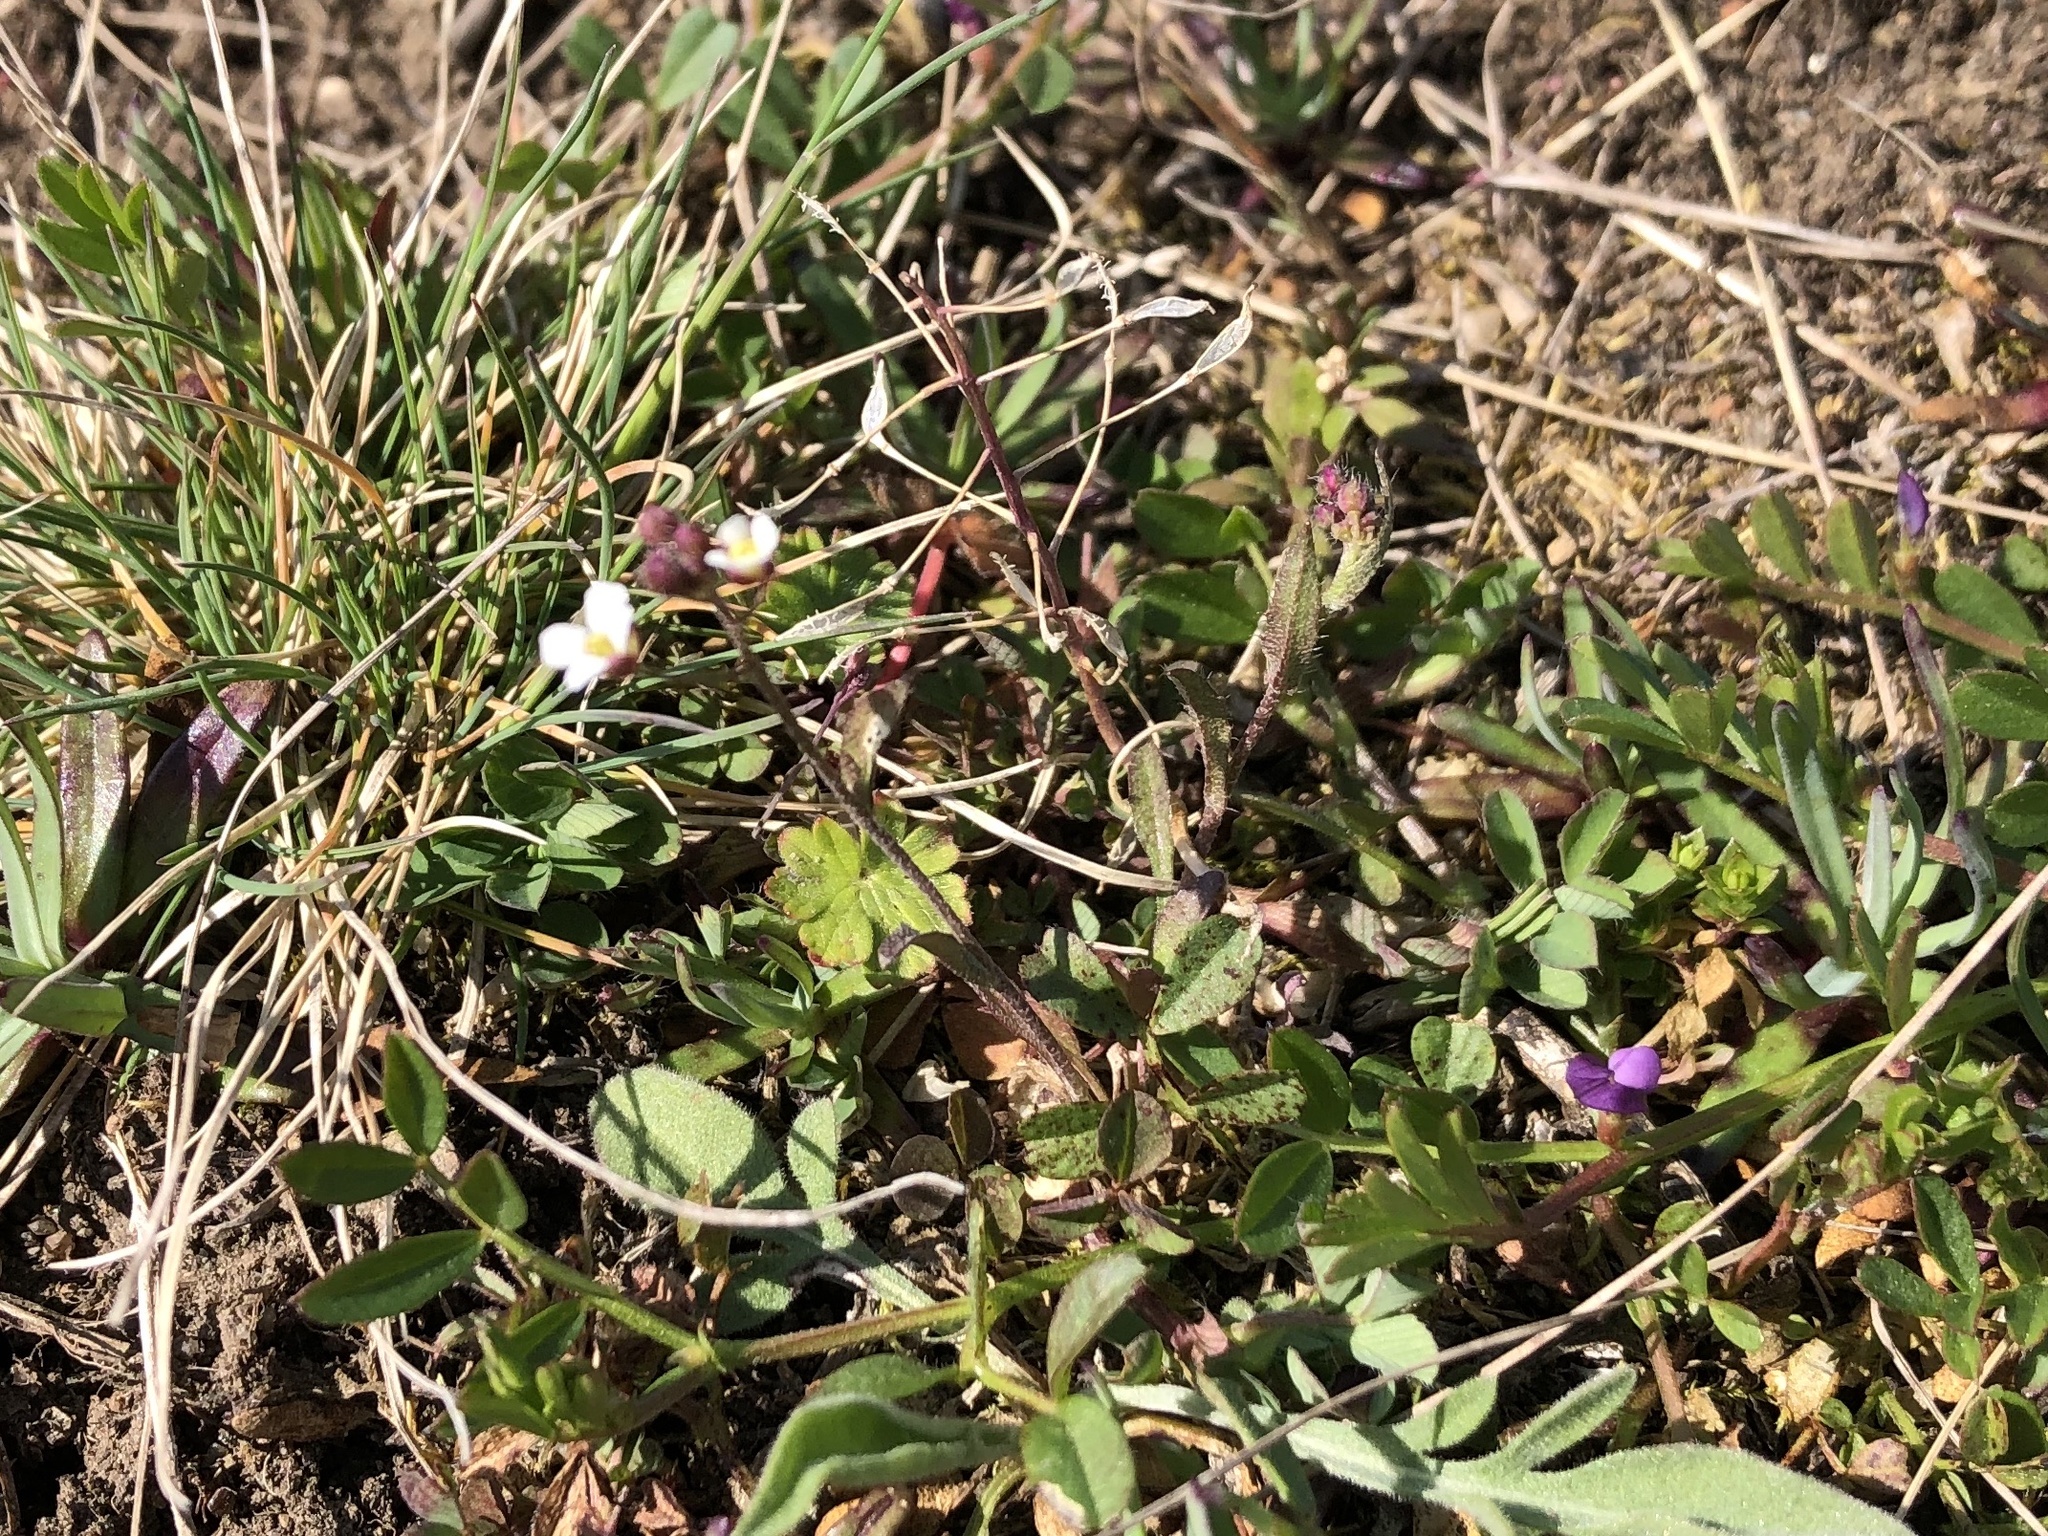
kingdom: Plantae
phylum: Tracheophyta
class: Magnoliopsida
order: Brassicales
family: Brassicaceae
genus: Arabidopsis
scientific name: Arabidopsis thaliana
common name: Thale cress
